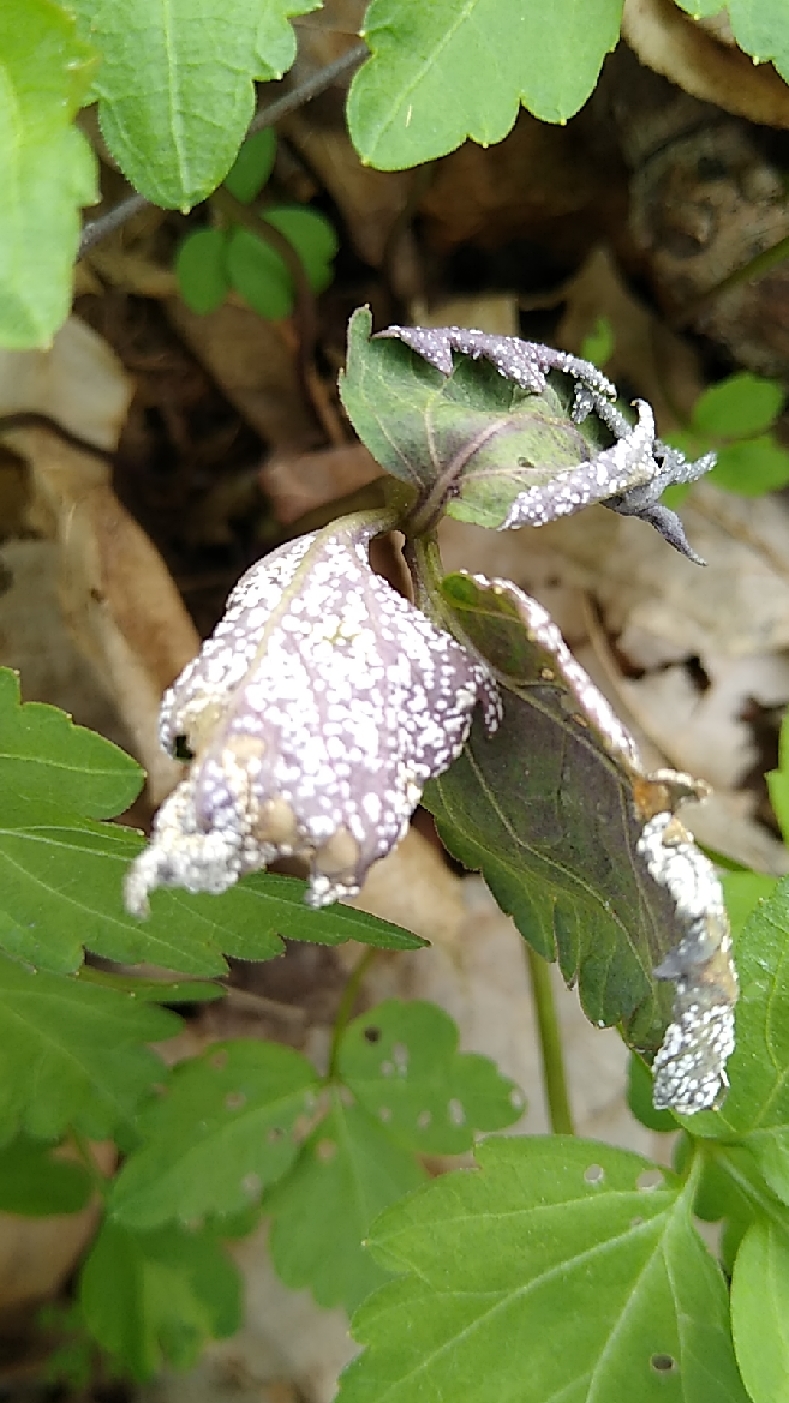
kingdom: Chromista
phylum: Oomycota
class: Peronosporea
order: Albuginales
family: Albuginaceae
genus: Albugo
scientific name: Albugo candida
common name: Crucifer white blister
